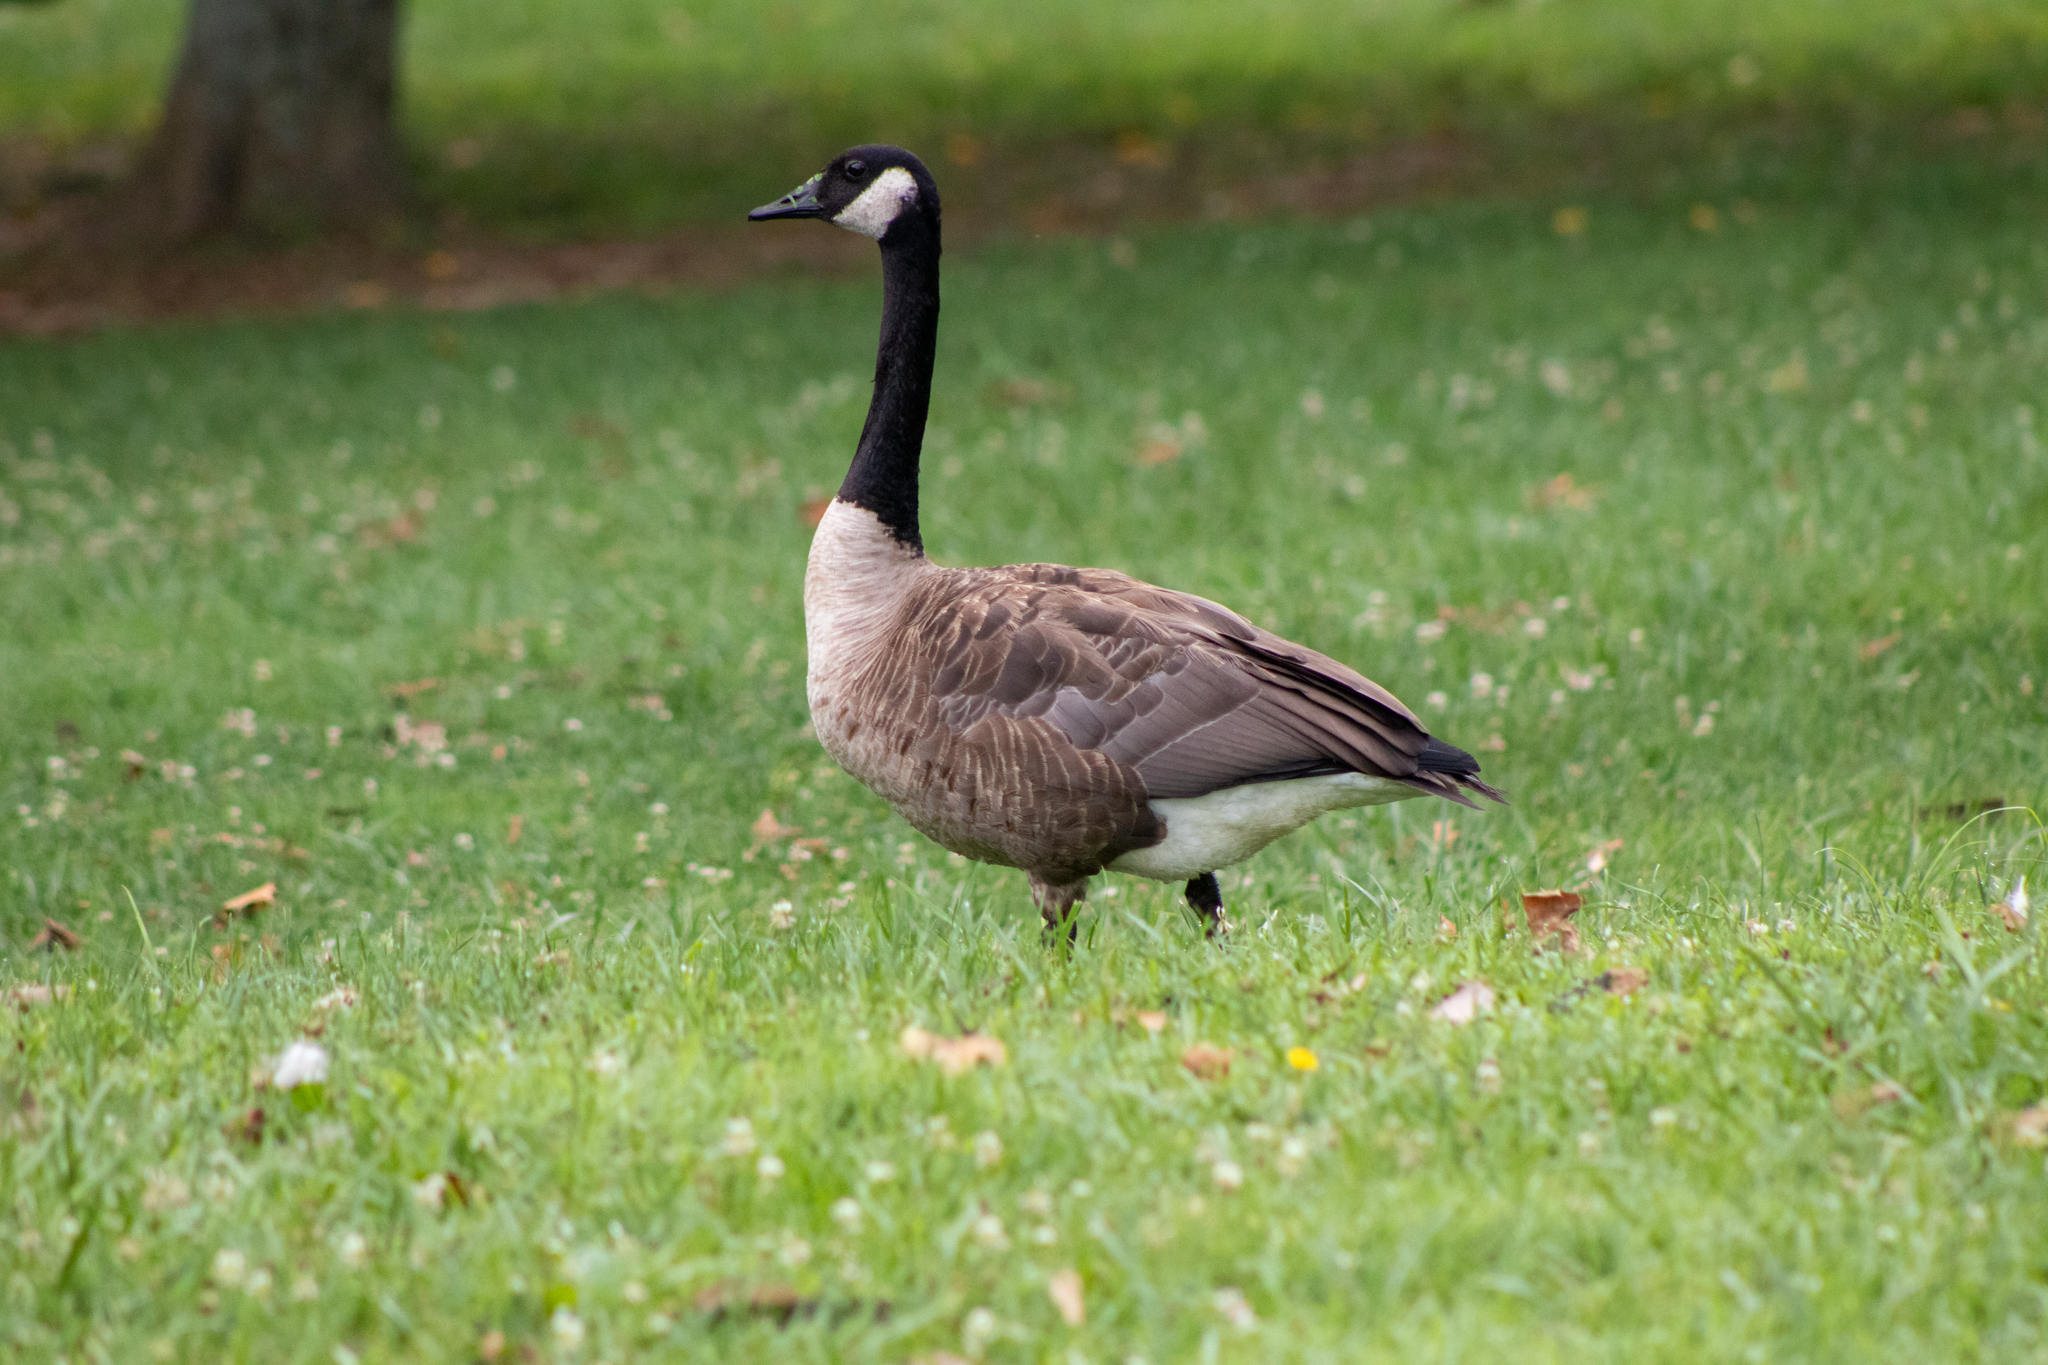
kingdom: Animalia
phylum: Chordata
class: Aves
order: Anseriformes
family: Anatidae
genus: Branta
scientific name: Branta canadensis
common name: Canada goose
